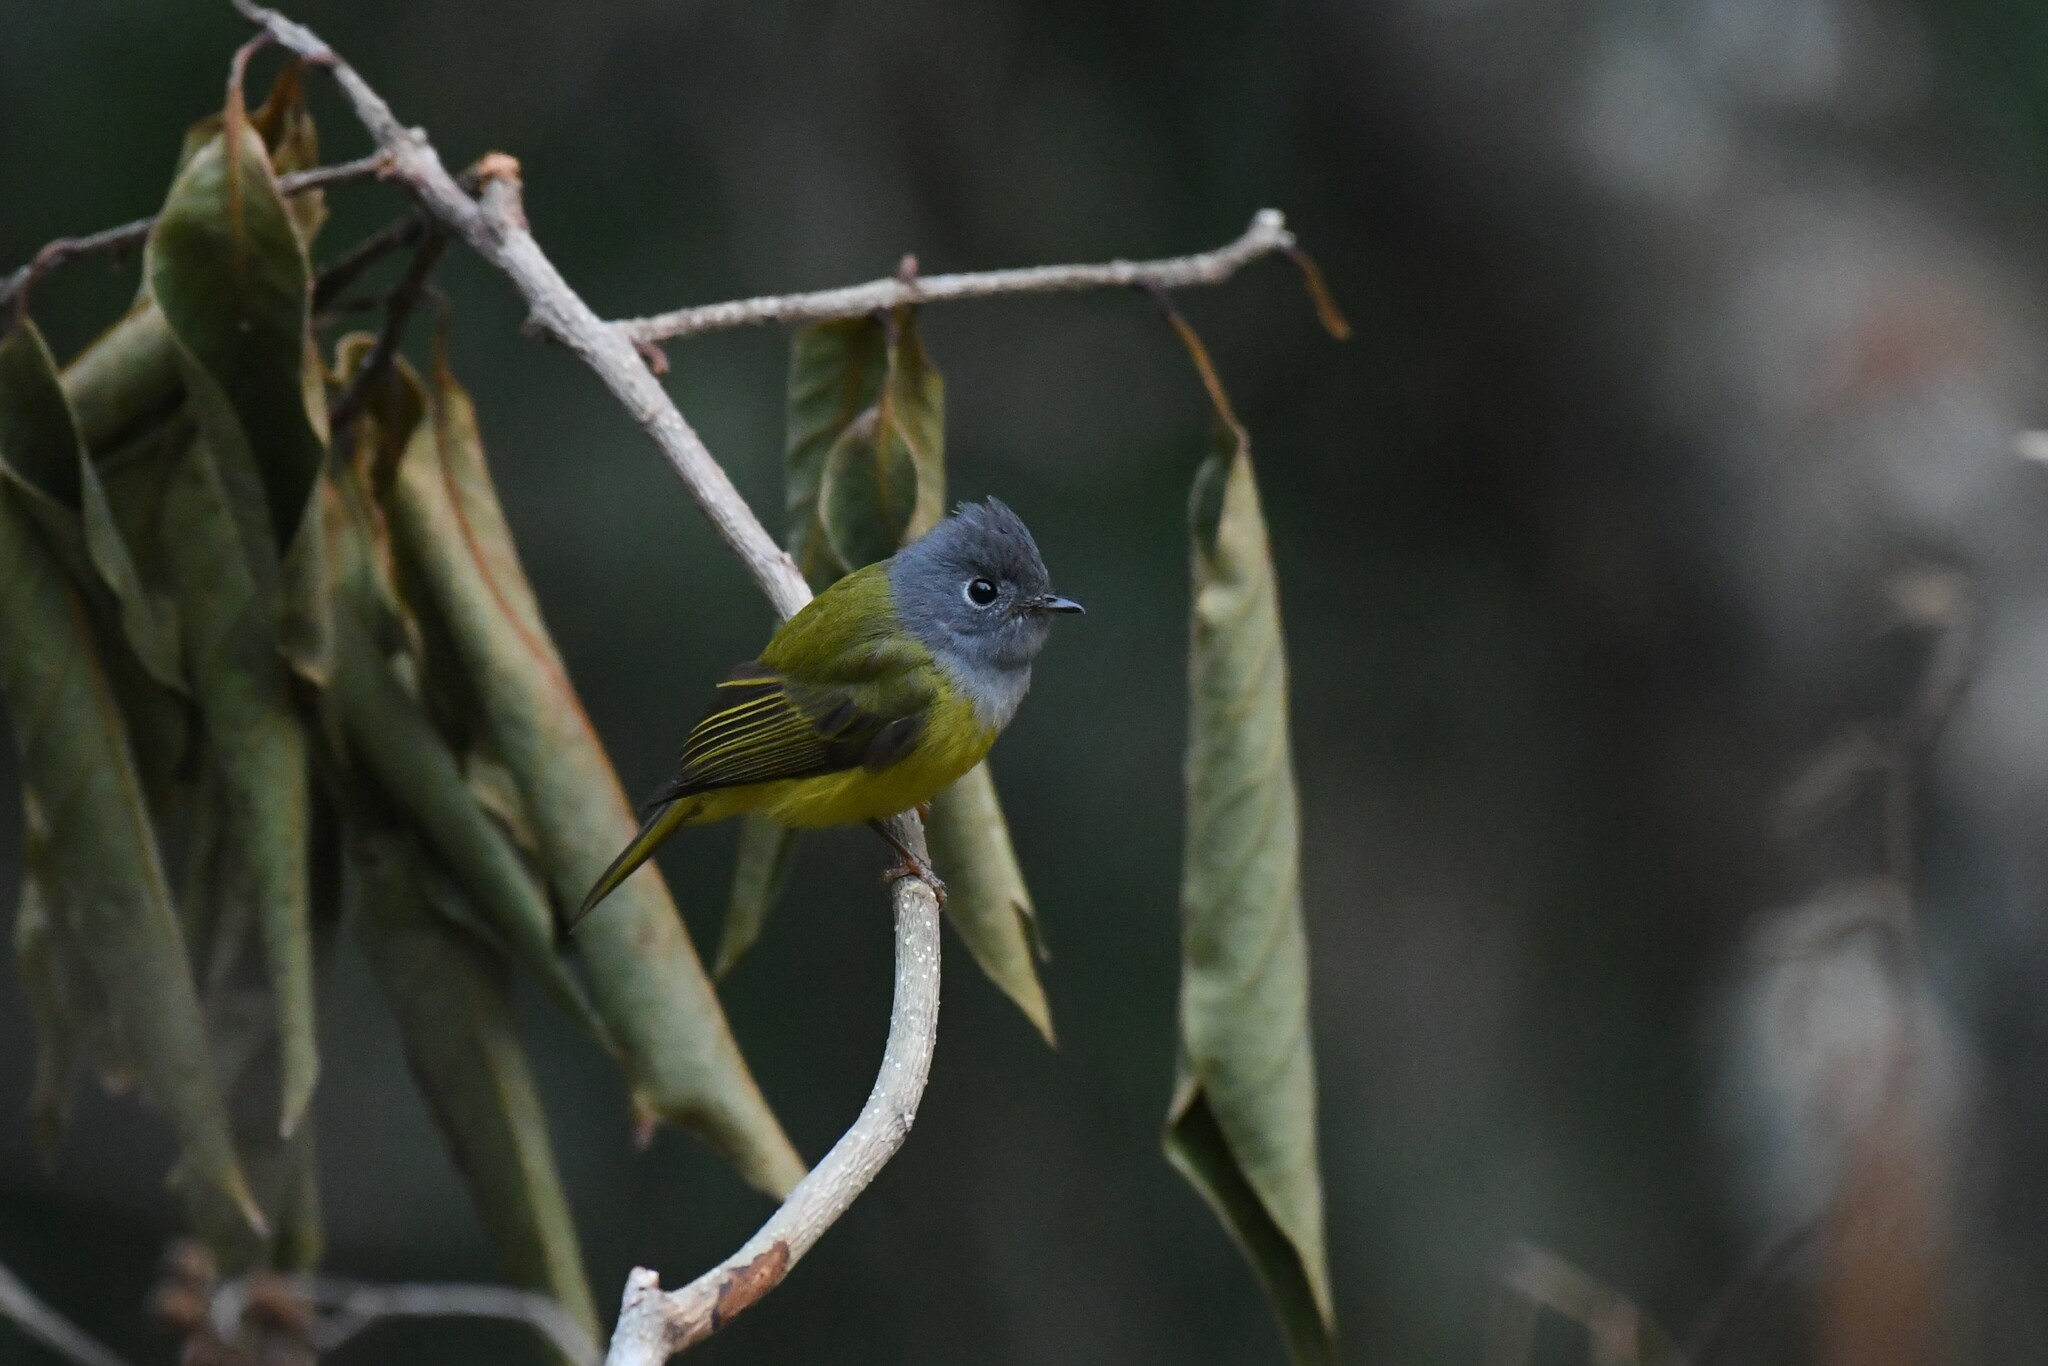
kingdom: Animalia
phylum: Chordata
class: Aves
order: Passeriformes
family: Stenostiridae
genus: Culicicapa
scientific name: Culicicapa ceylonensis
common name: Grey-headed canary-flycatcher
